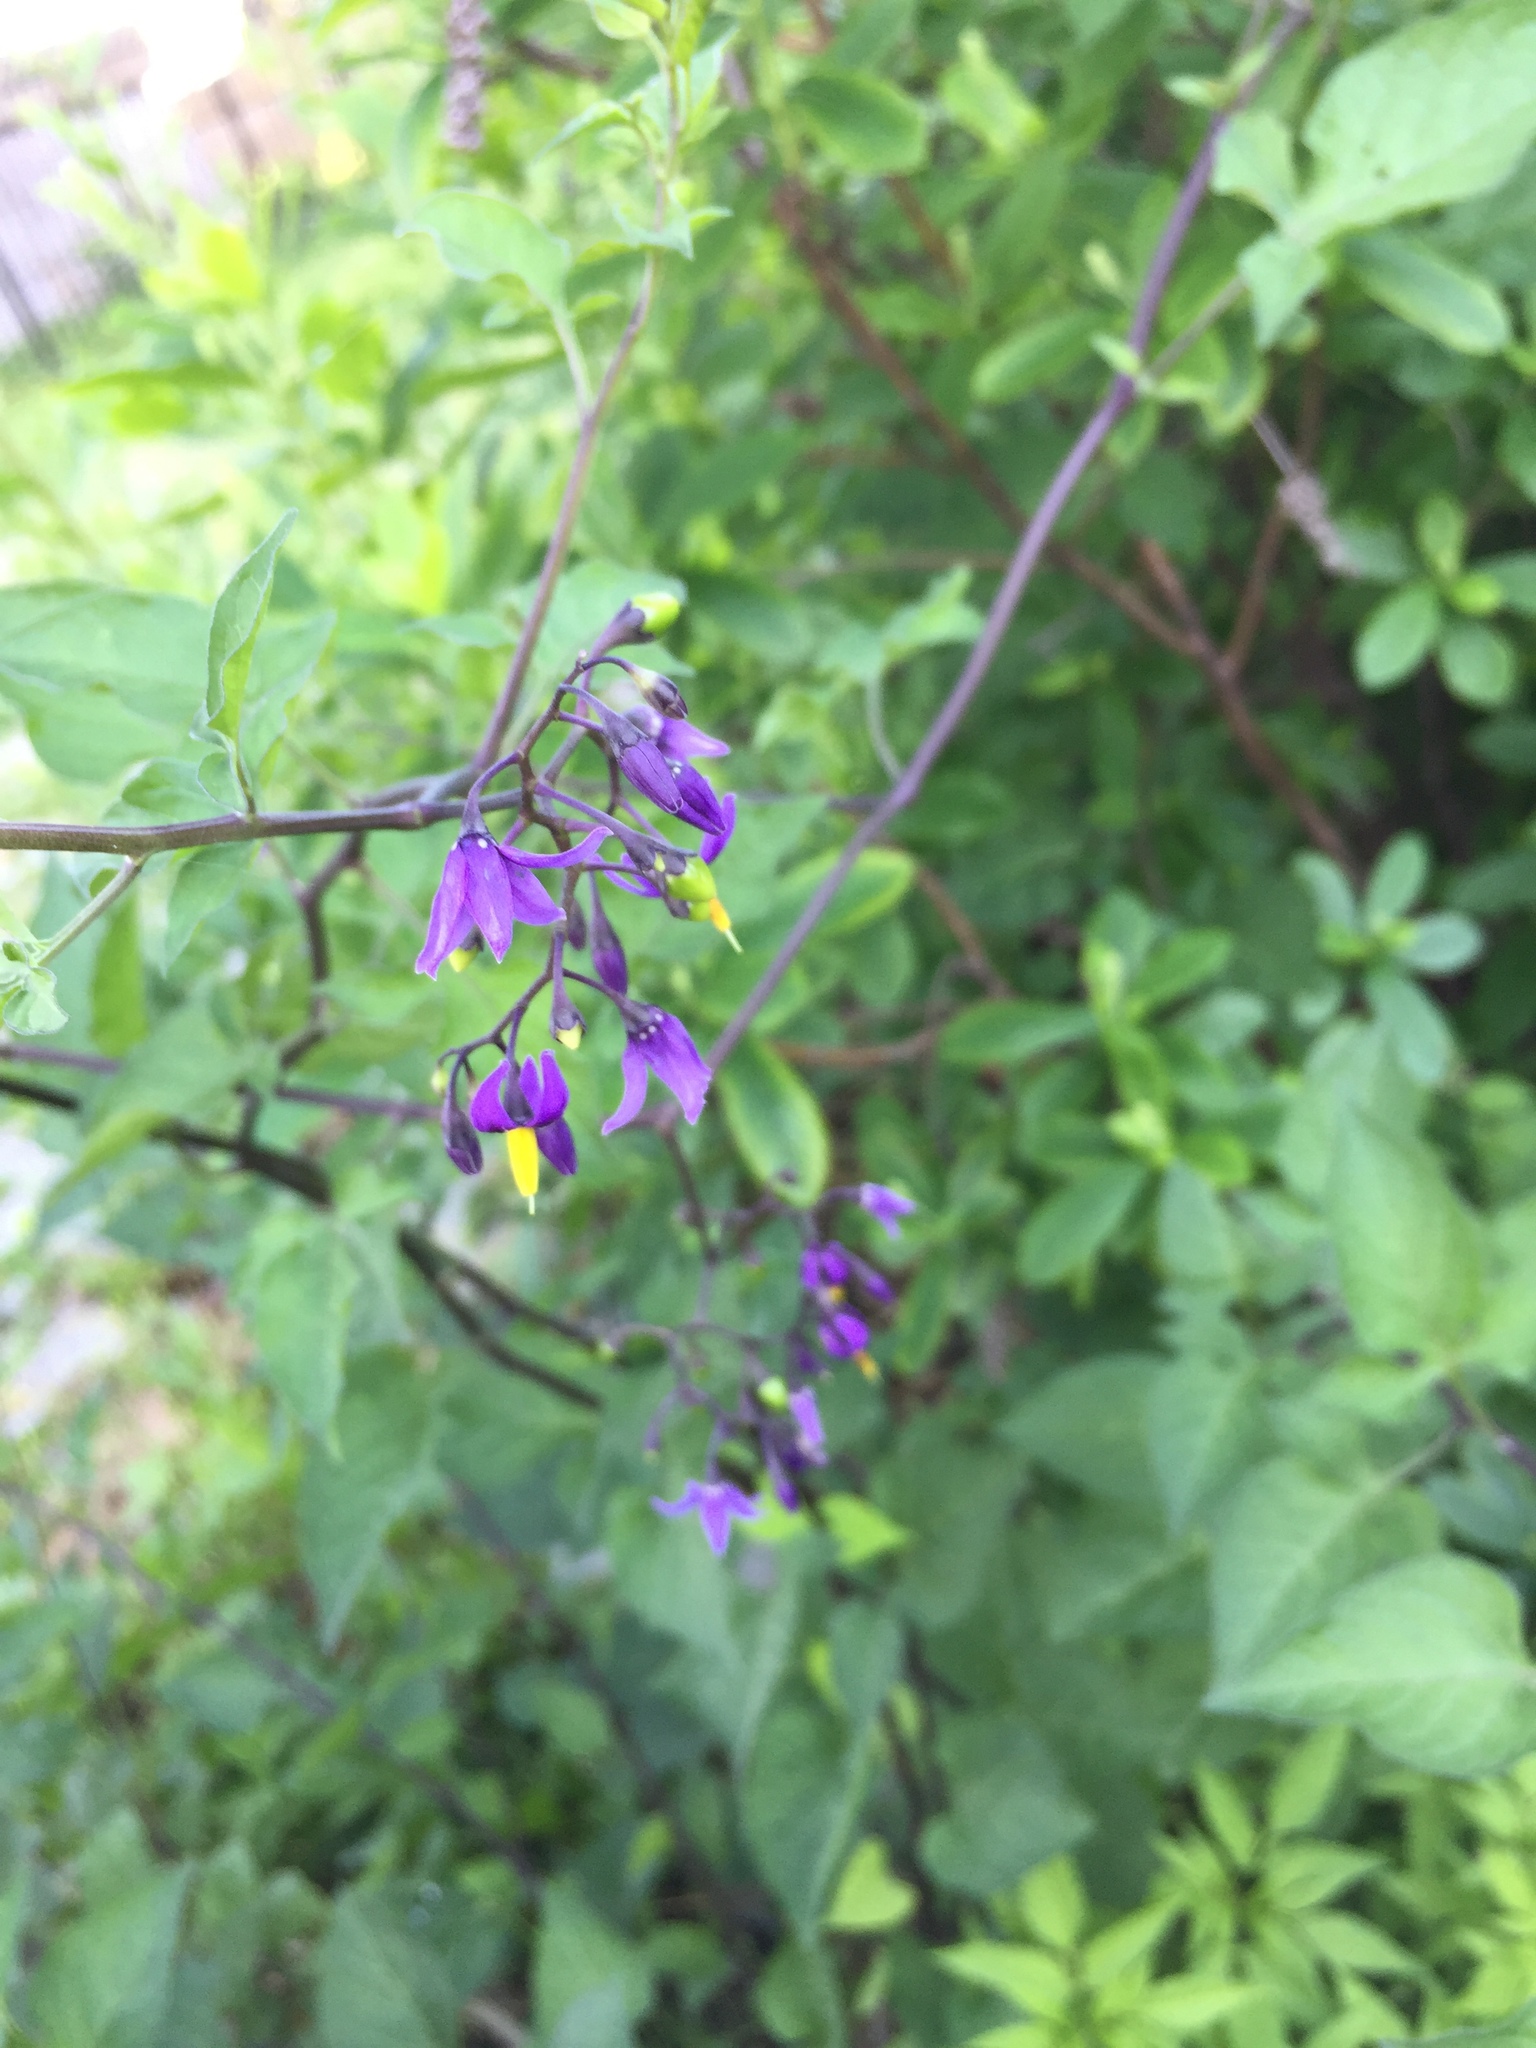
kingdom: Plantae
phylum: Tracheophyta
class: Magnoliopsida
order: Solanales
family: Solanaceae
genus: Solanum
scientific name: Solanum dulcamara
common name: Climbing nightshade
